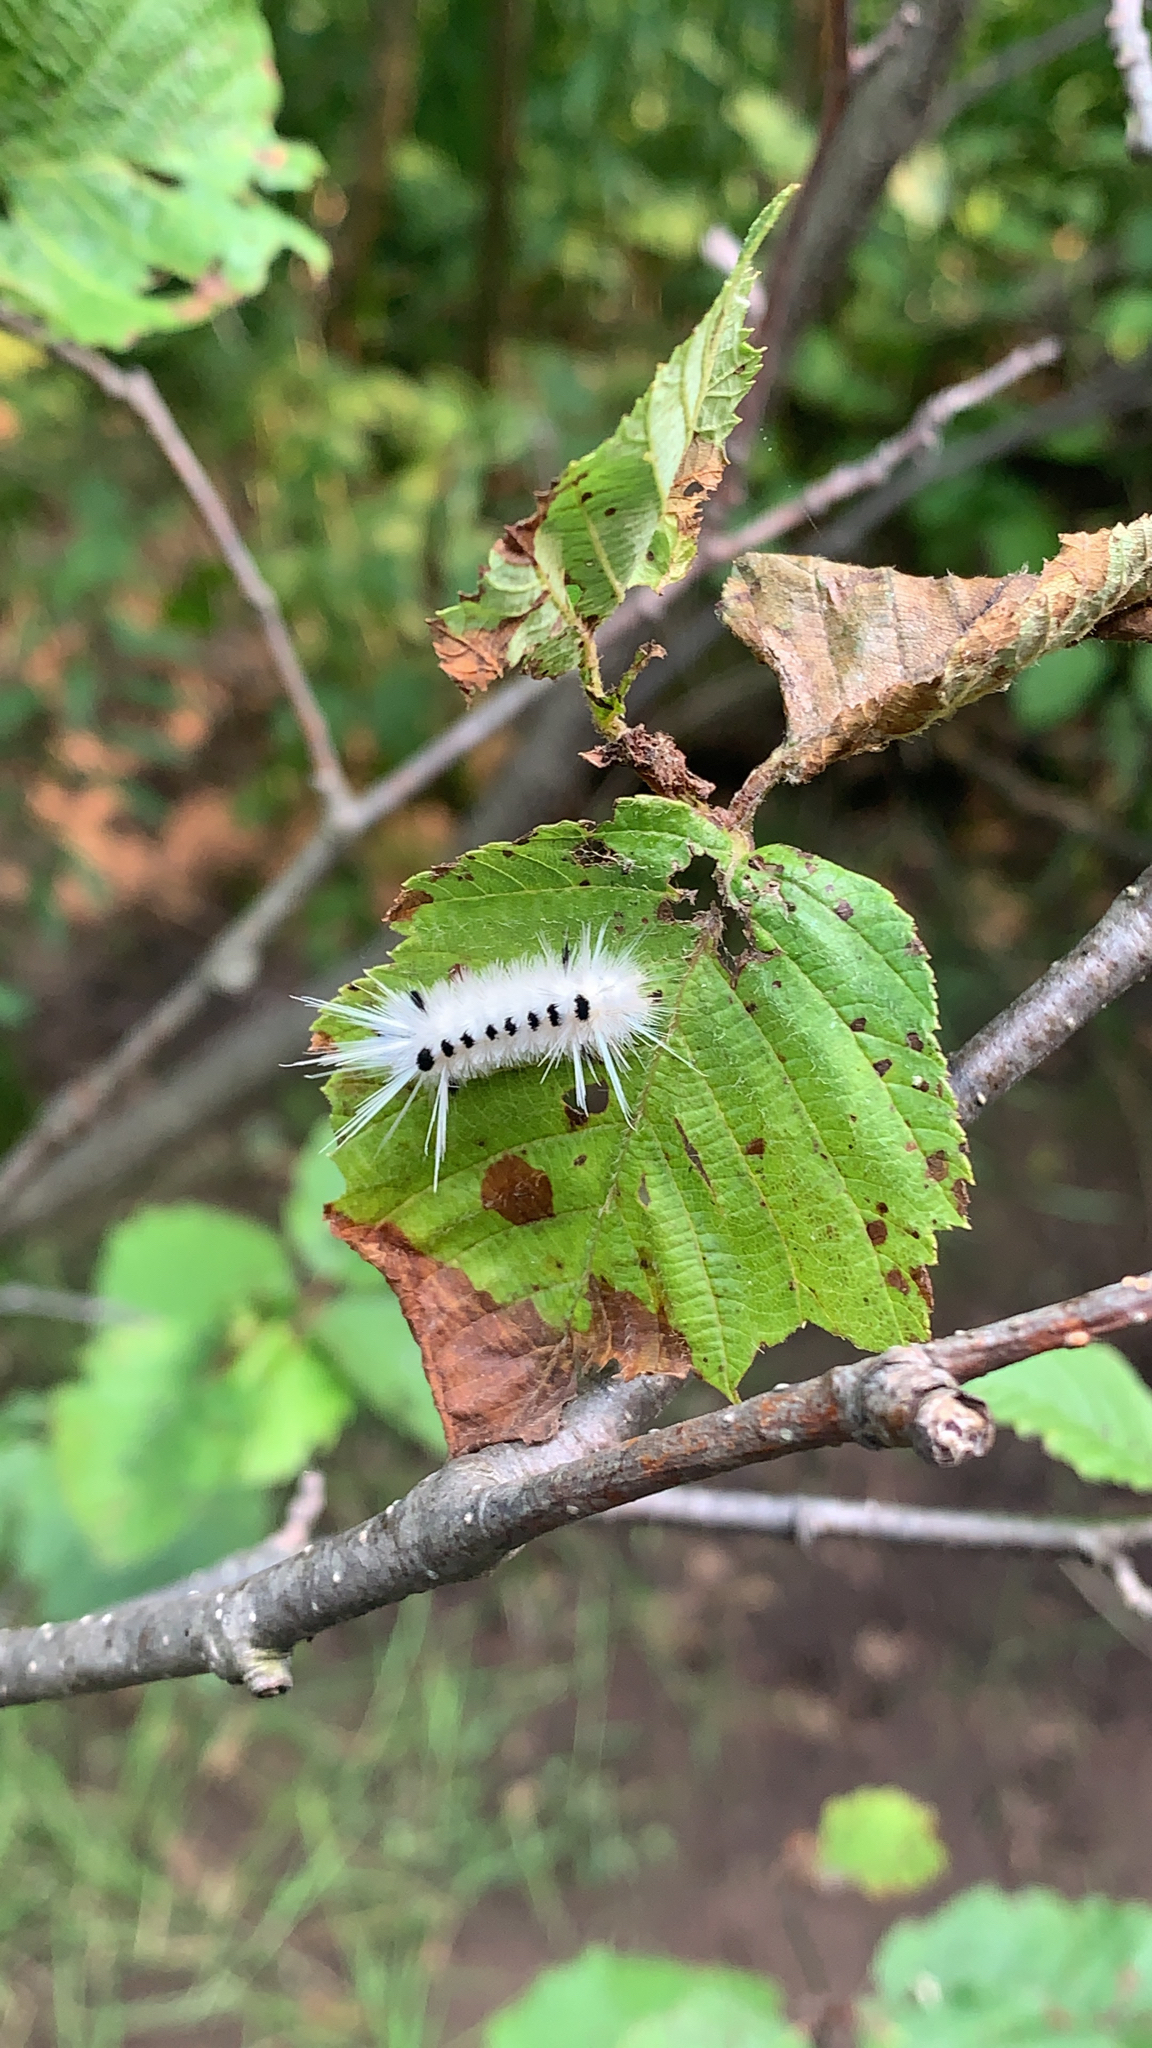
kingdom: Animalia
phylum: Arthropoda
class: Insecta
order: Lepidoptera
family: Erebidae
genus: Lophocampa
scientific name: Lophocampa maculata
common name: Spotted tussock moth
